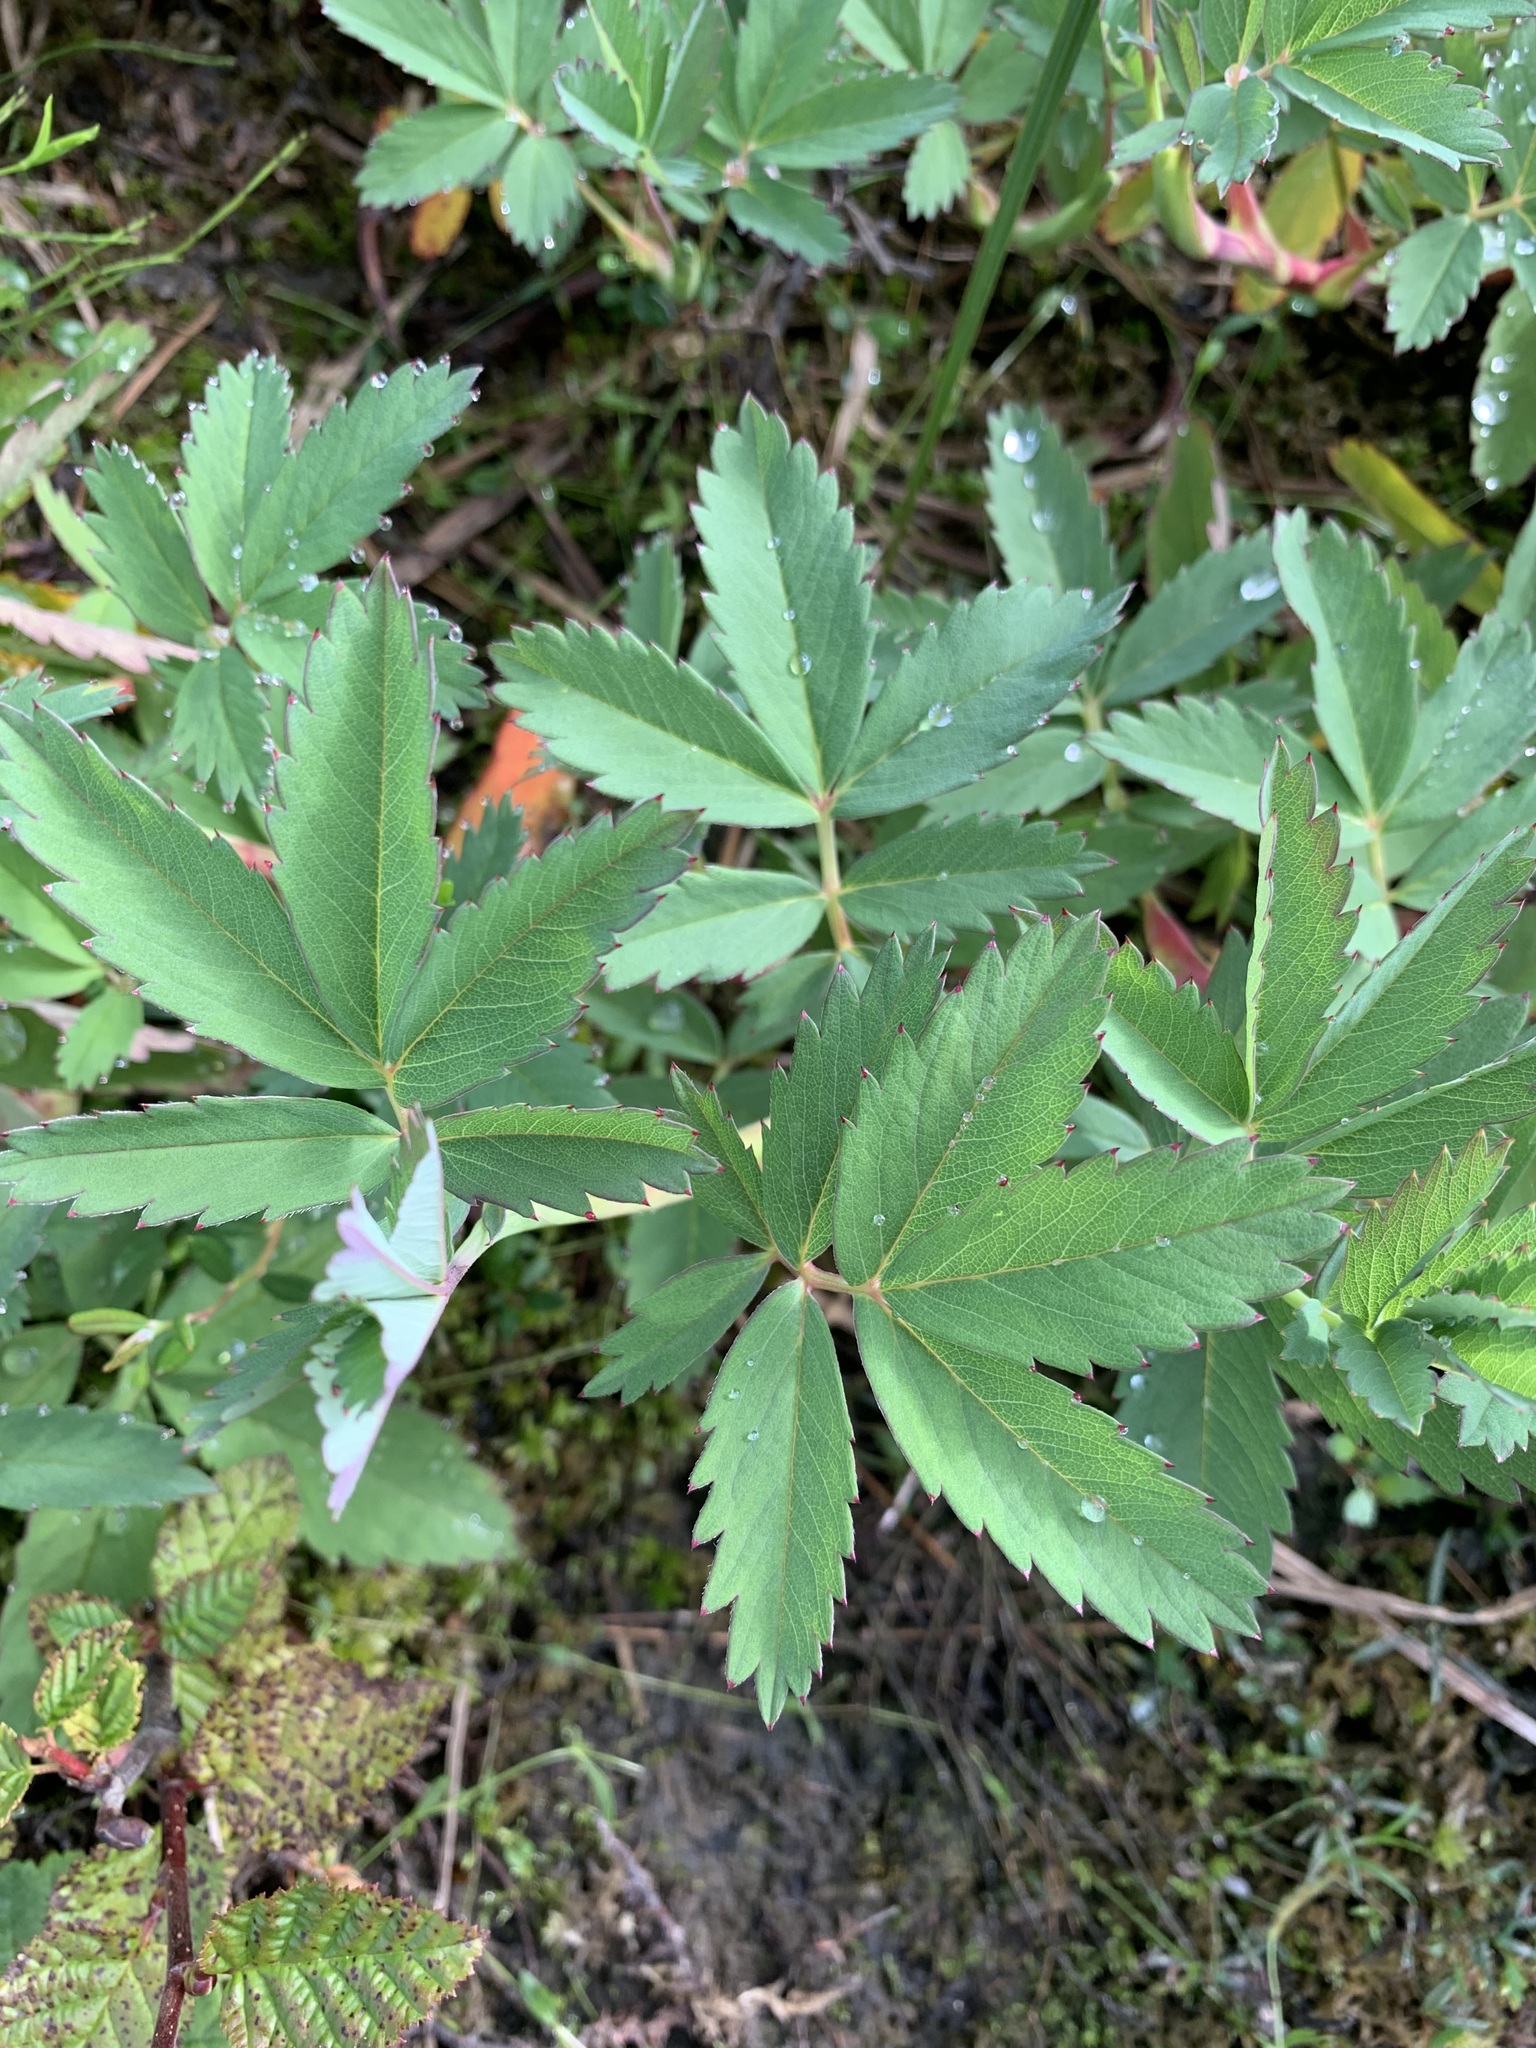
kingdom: Plantae
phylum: Tracheophyta
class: Magnoliopsida
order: Rosales
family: Rosaceae
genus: Comarum
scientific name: Comarum palustre
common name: Marsh cinquefoil
